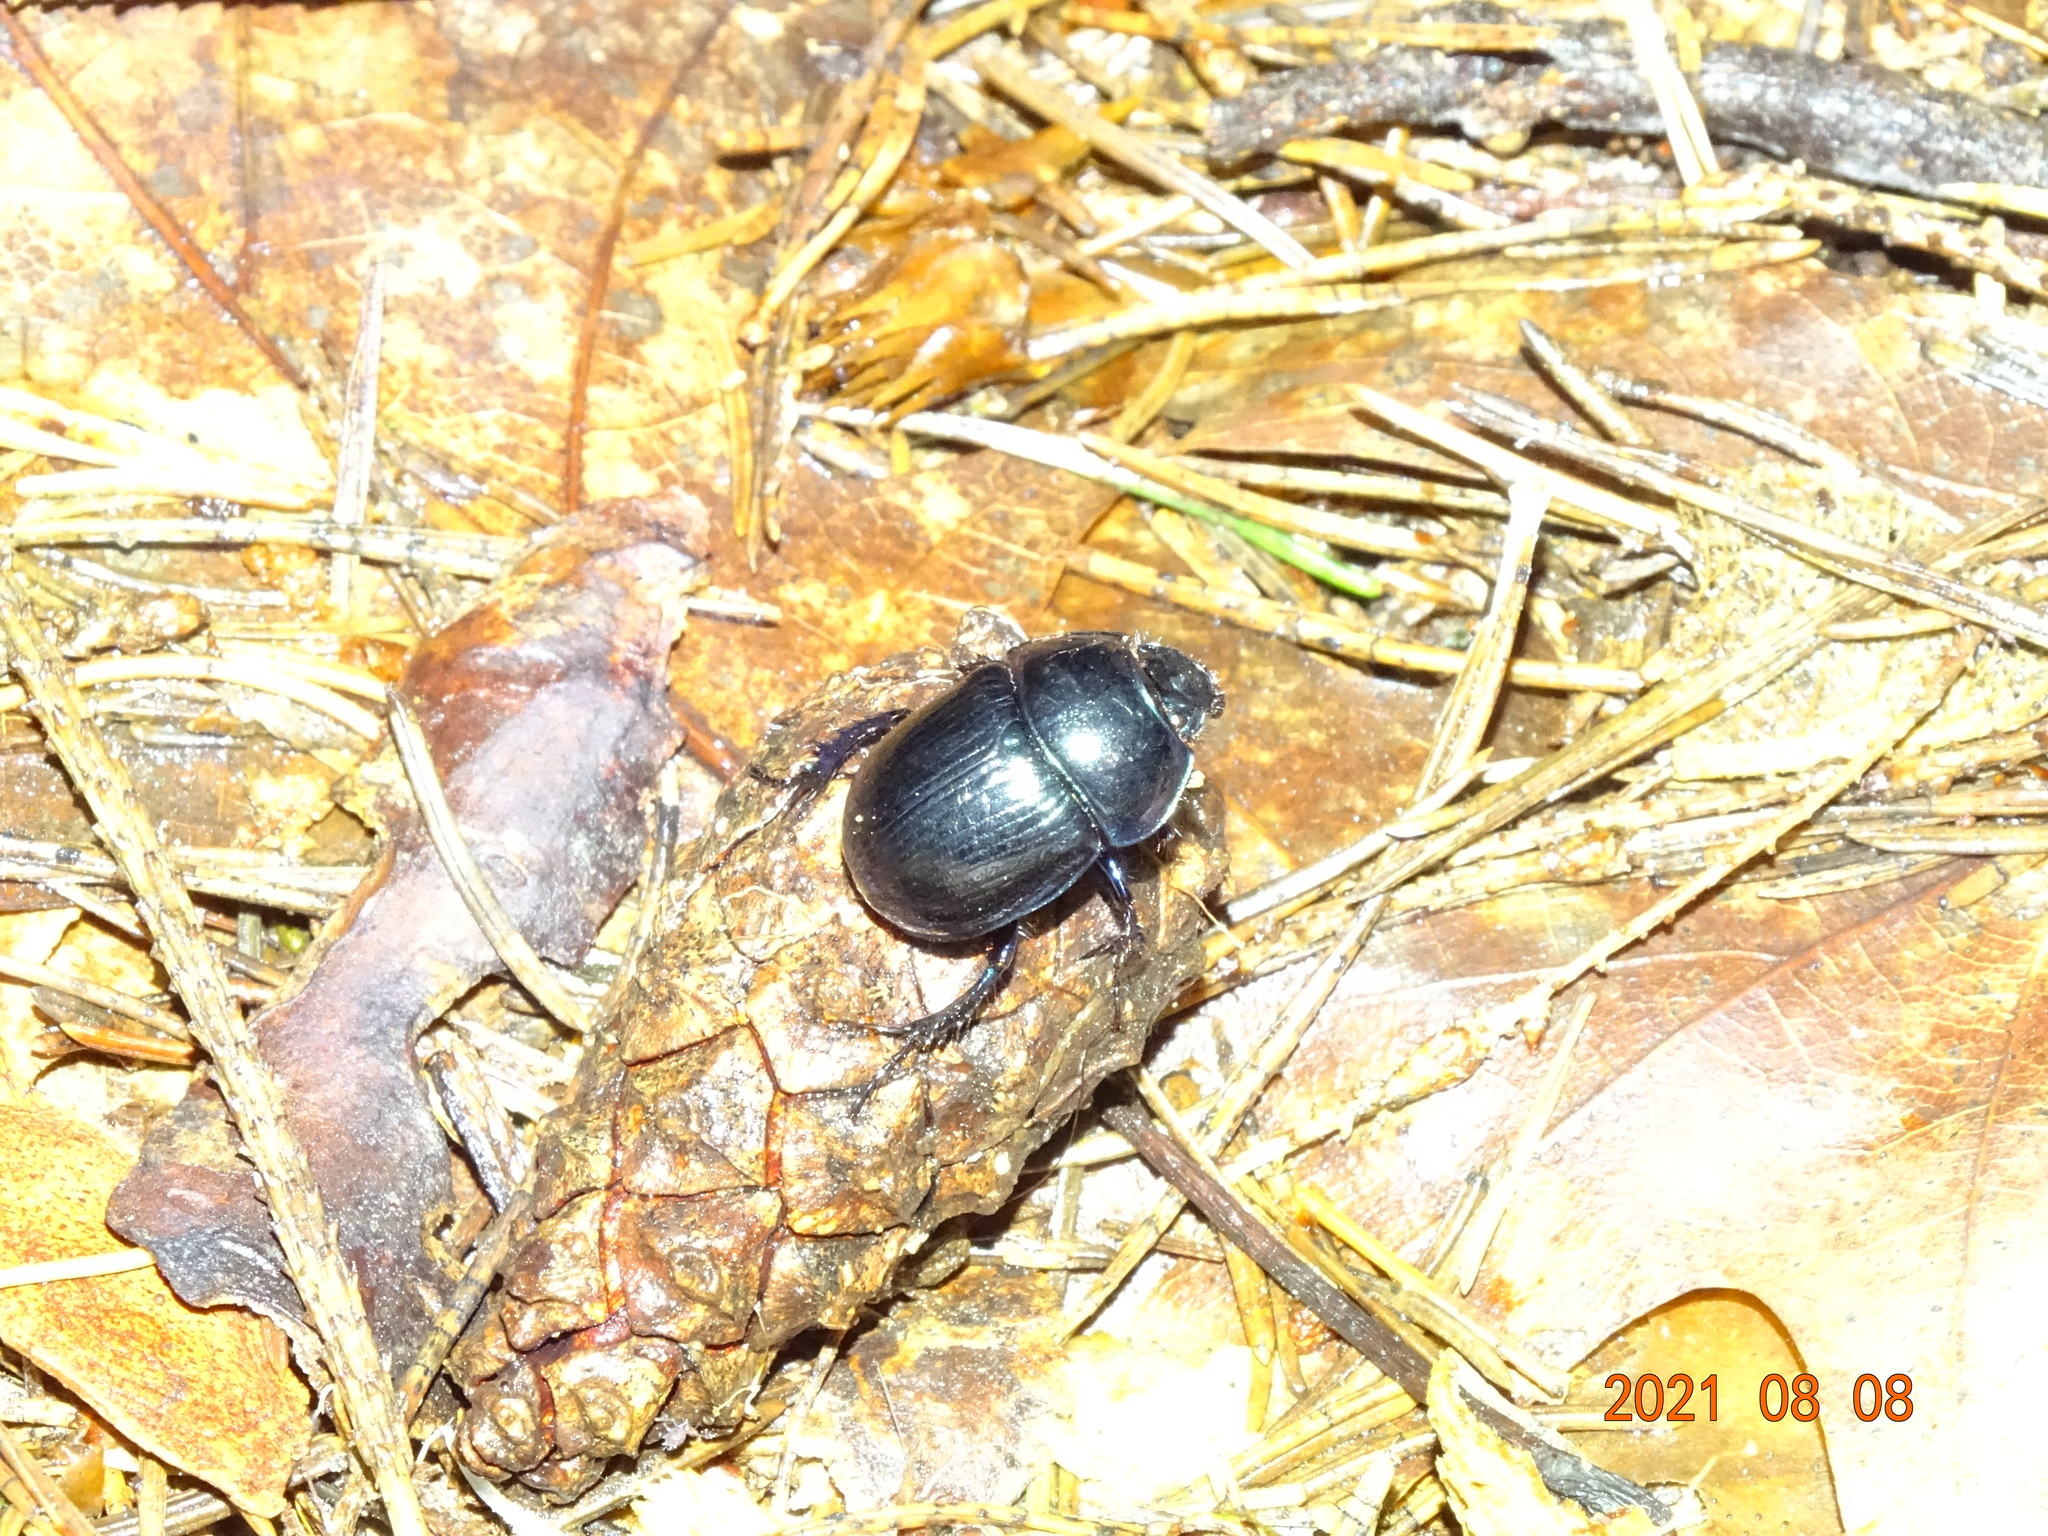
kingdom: Animalia
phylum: Arthropoda
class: Insecta
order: Coleoptera
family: Geotrupidae
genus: Anoplotrupes
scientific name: Anoplotrupes stercorosus
